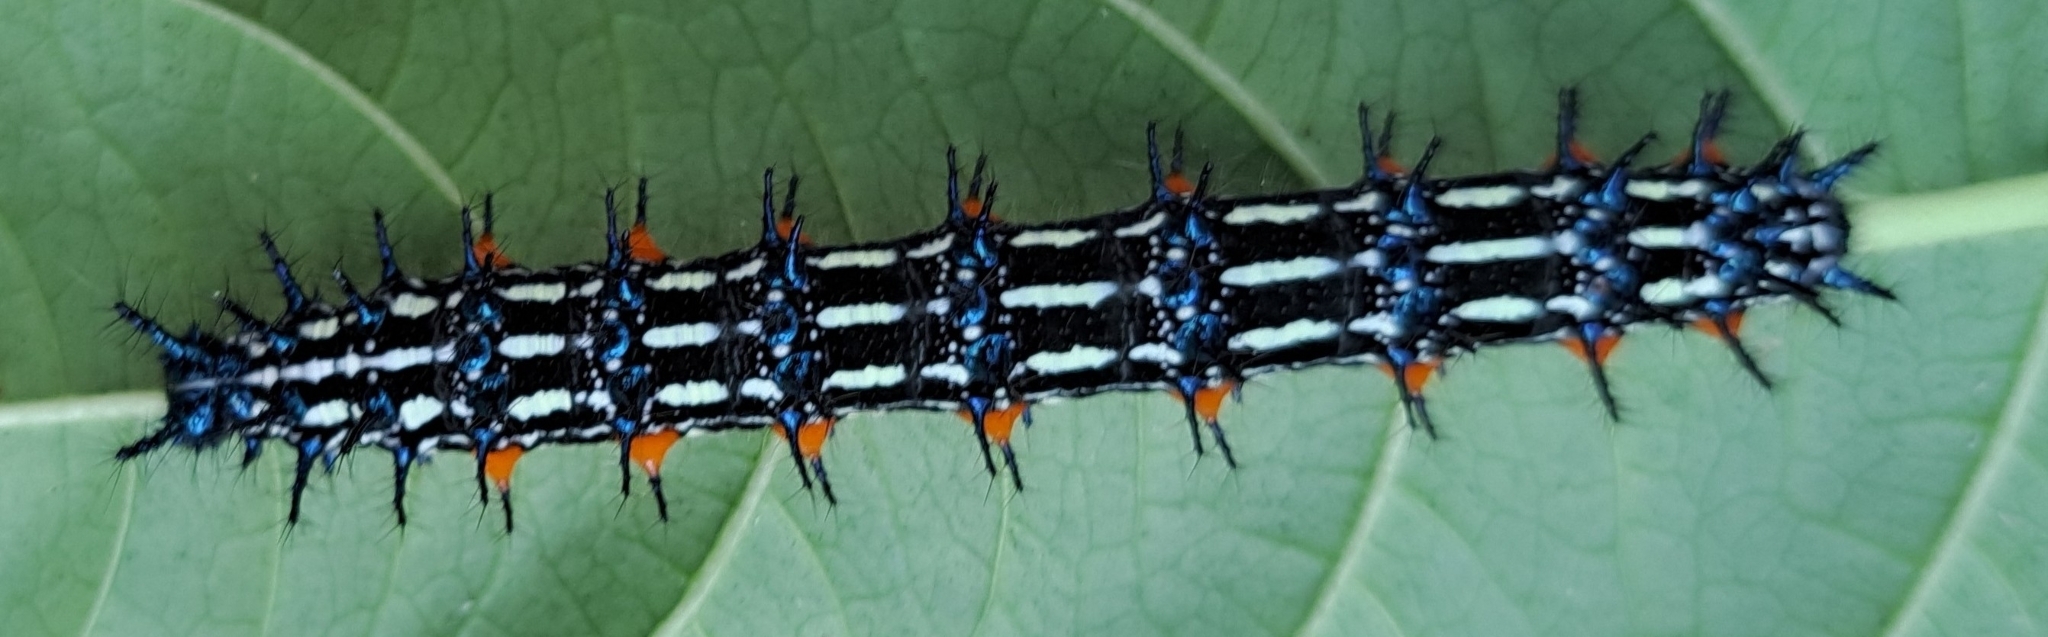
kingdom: Animalia
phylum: Arthropoda
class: Insecta
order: Lepidoptera
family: Nymphalidae
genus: Doleschallia
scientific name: Doleschallia bisaltide
